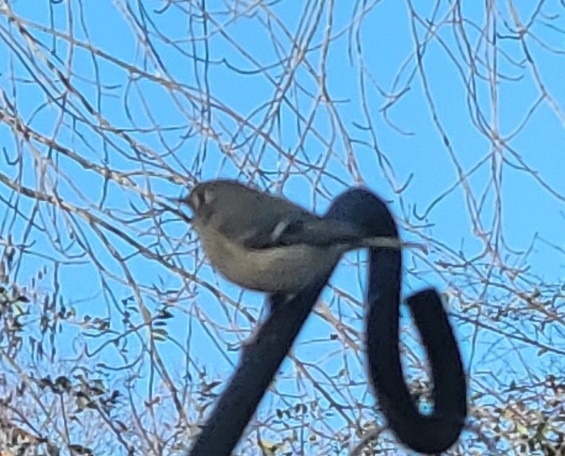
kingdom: Animalia
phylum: Chordata
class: Aves
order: Passeriformes
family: Regulidae
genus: Regulus
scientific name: Regulus calendula
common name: Ruby-crowned kinglet
